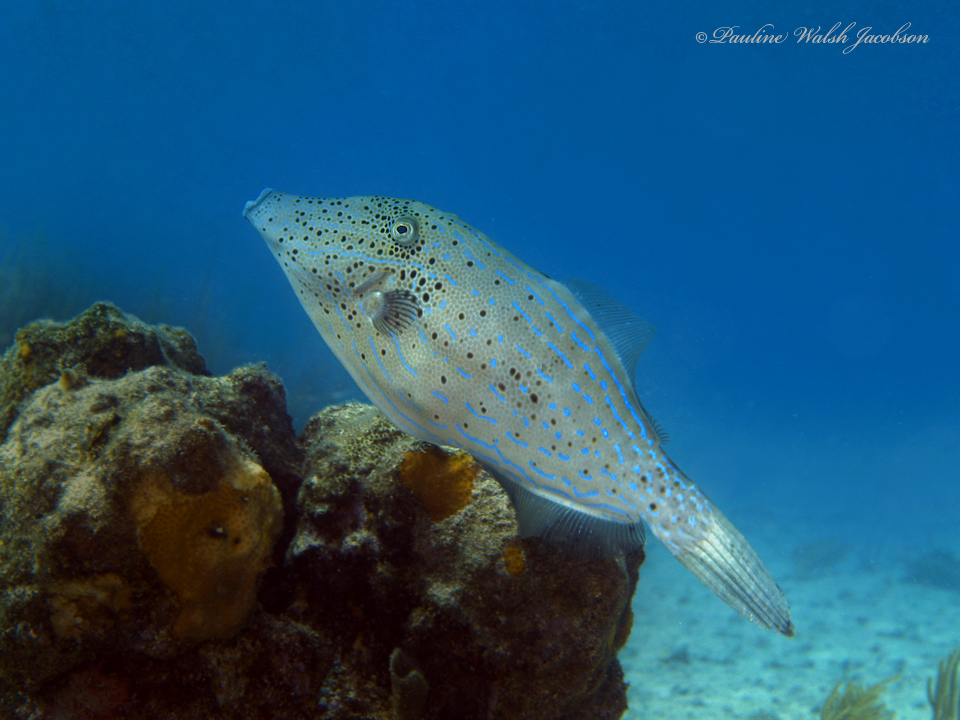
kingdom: Animalia
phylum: Chordata
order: Tetraodontiformes
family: Monacanthidae
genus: Aluterus
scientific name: Aluterus scriptus
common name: Scribbled leatherjacket filefish
